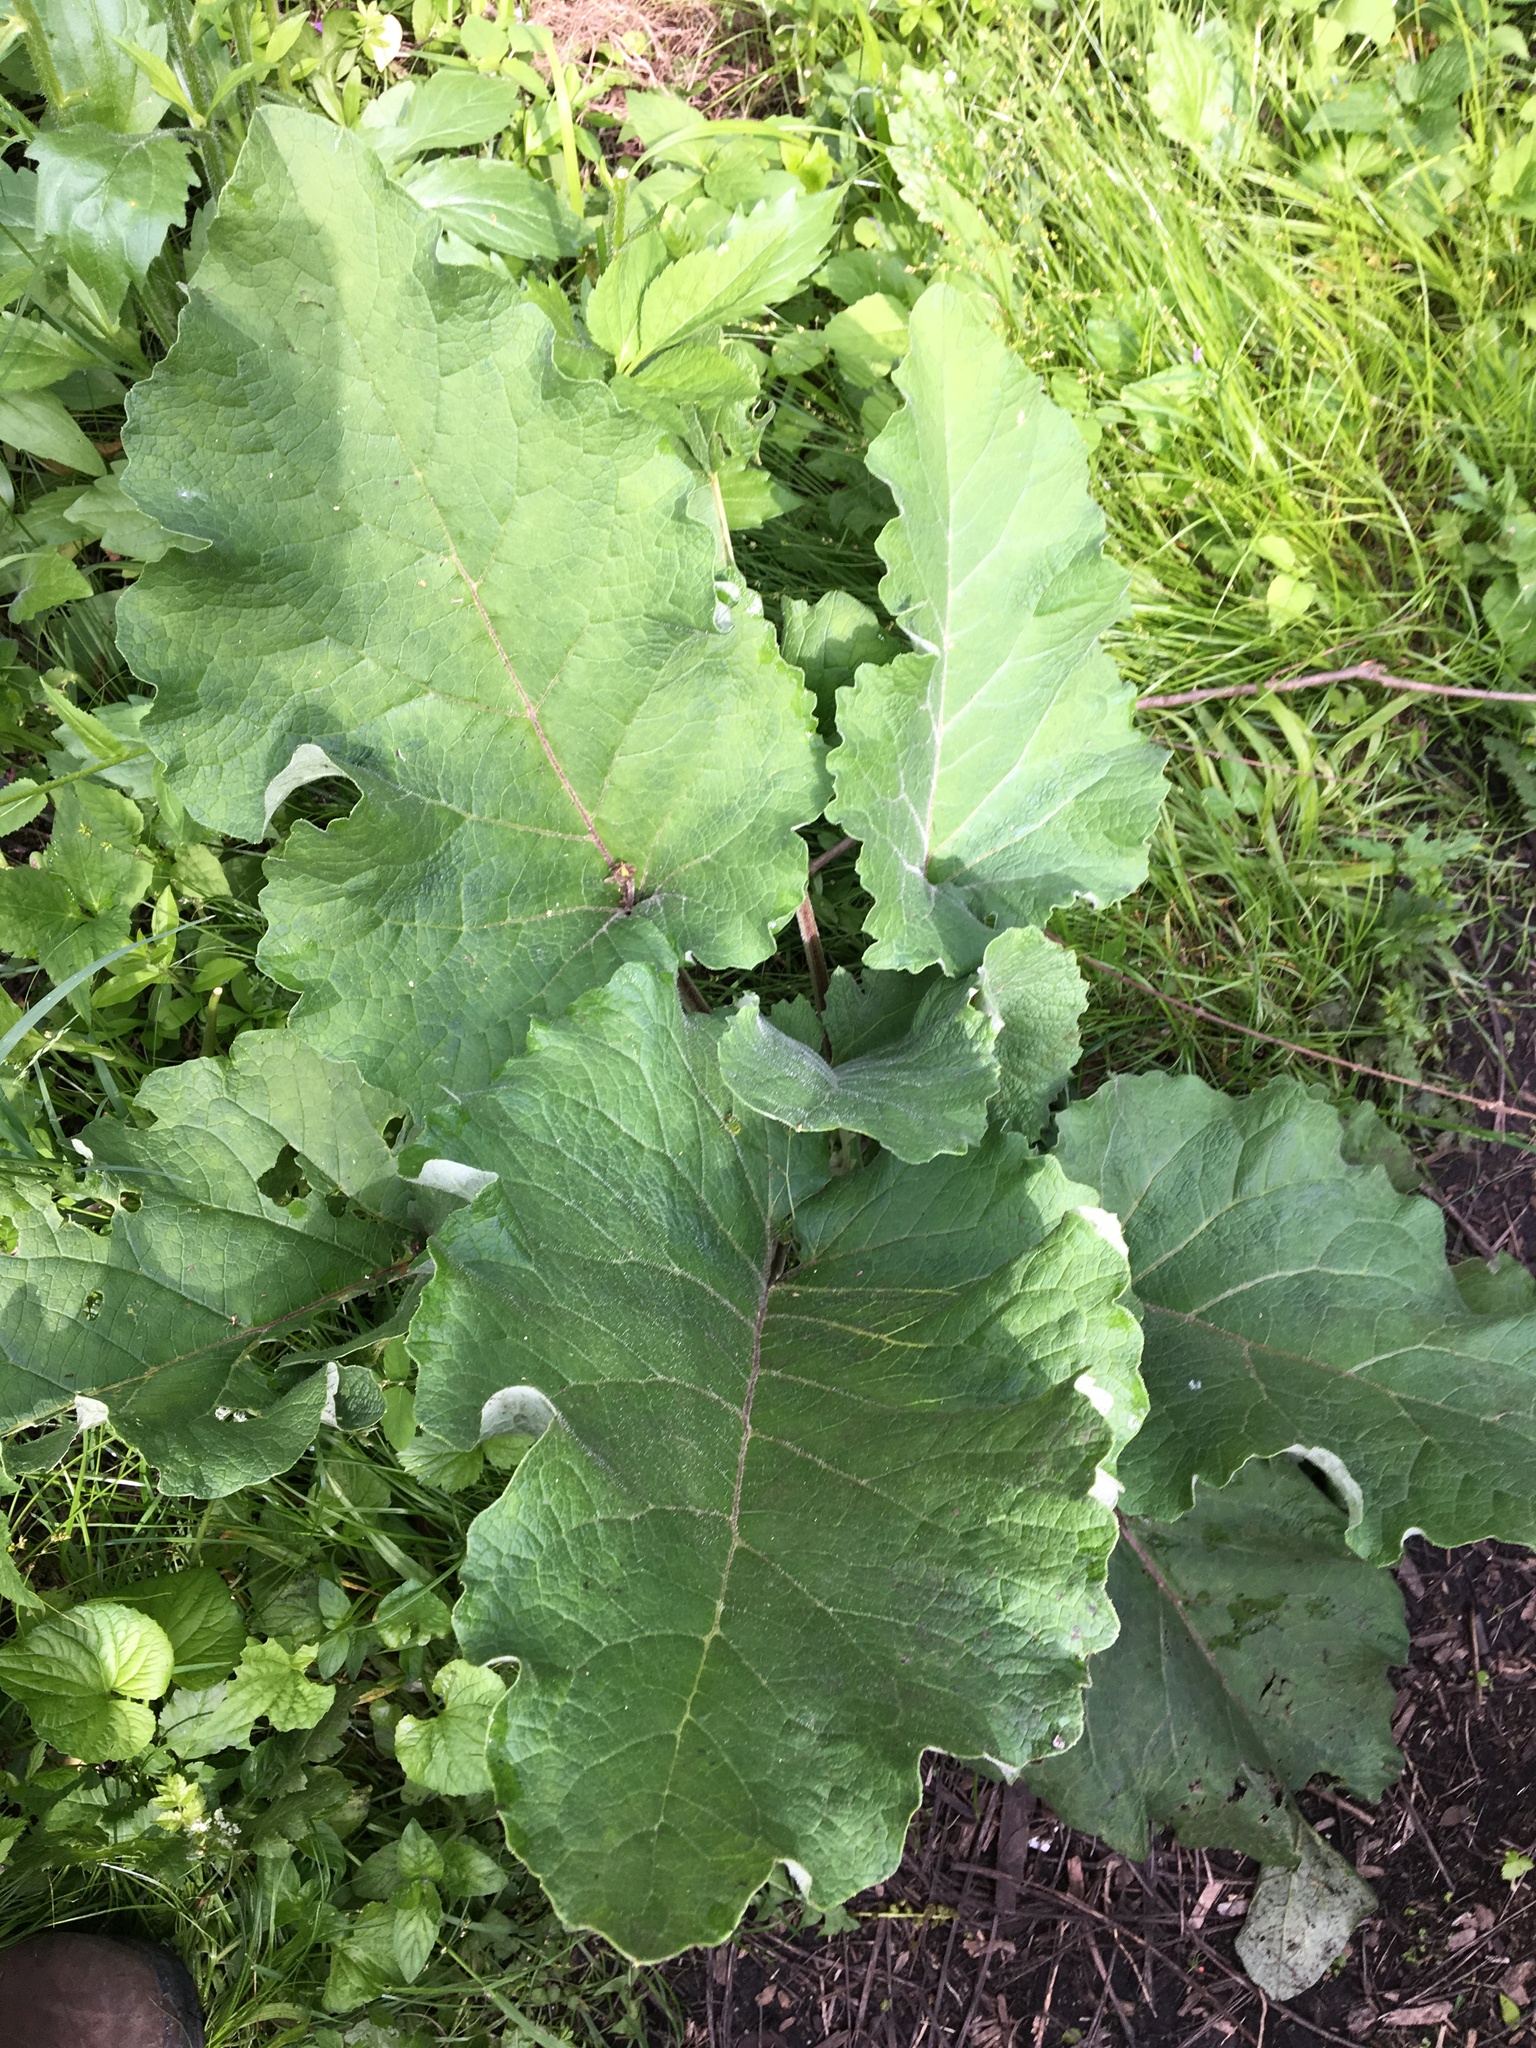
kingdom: Plantae
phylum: Tracheophyta
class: Magnoliopsida
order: Asterales
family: Asteraceae
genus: Arctium
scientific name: Arctium
